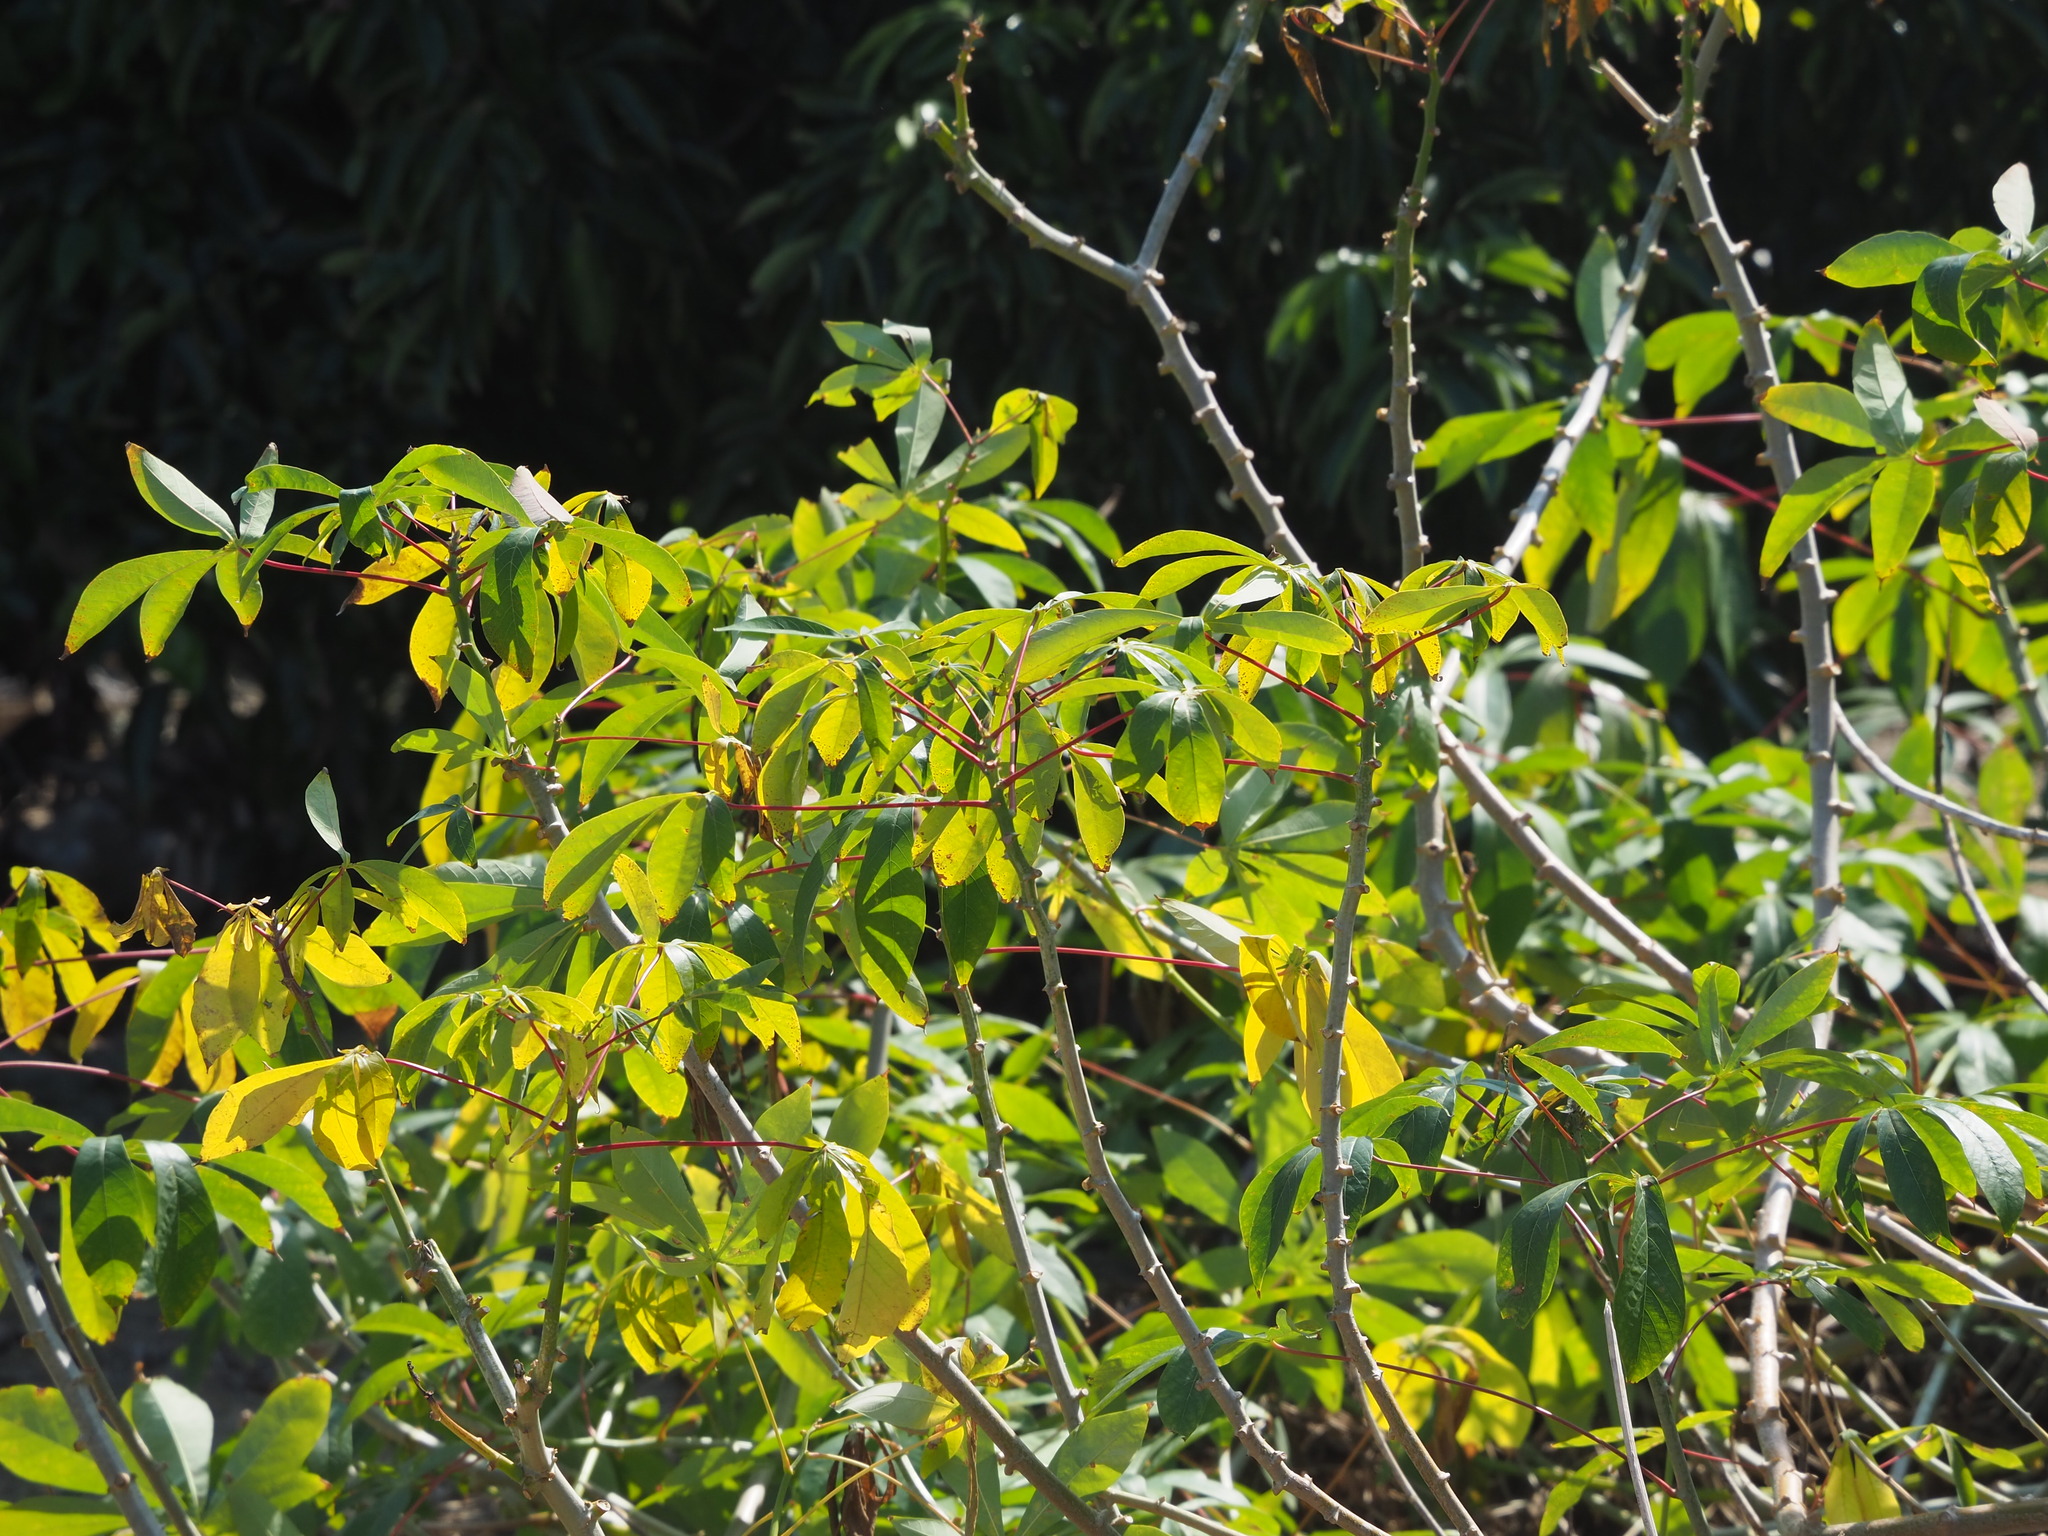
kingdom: Plantae
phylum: Tracheophyta
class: Magnoliopsida
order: Malpighiales
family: Euphorbiaceae
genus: Manihot
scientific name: Manihot esculenta
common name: Cassava
